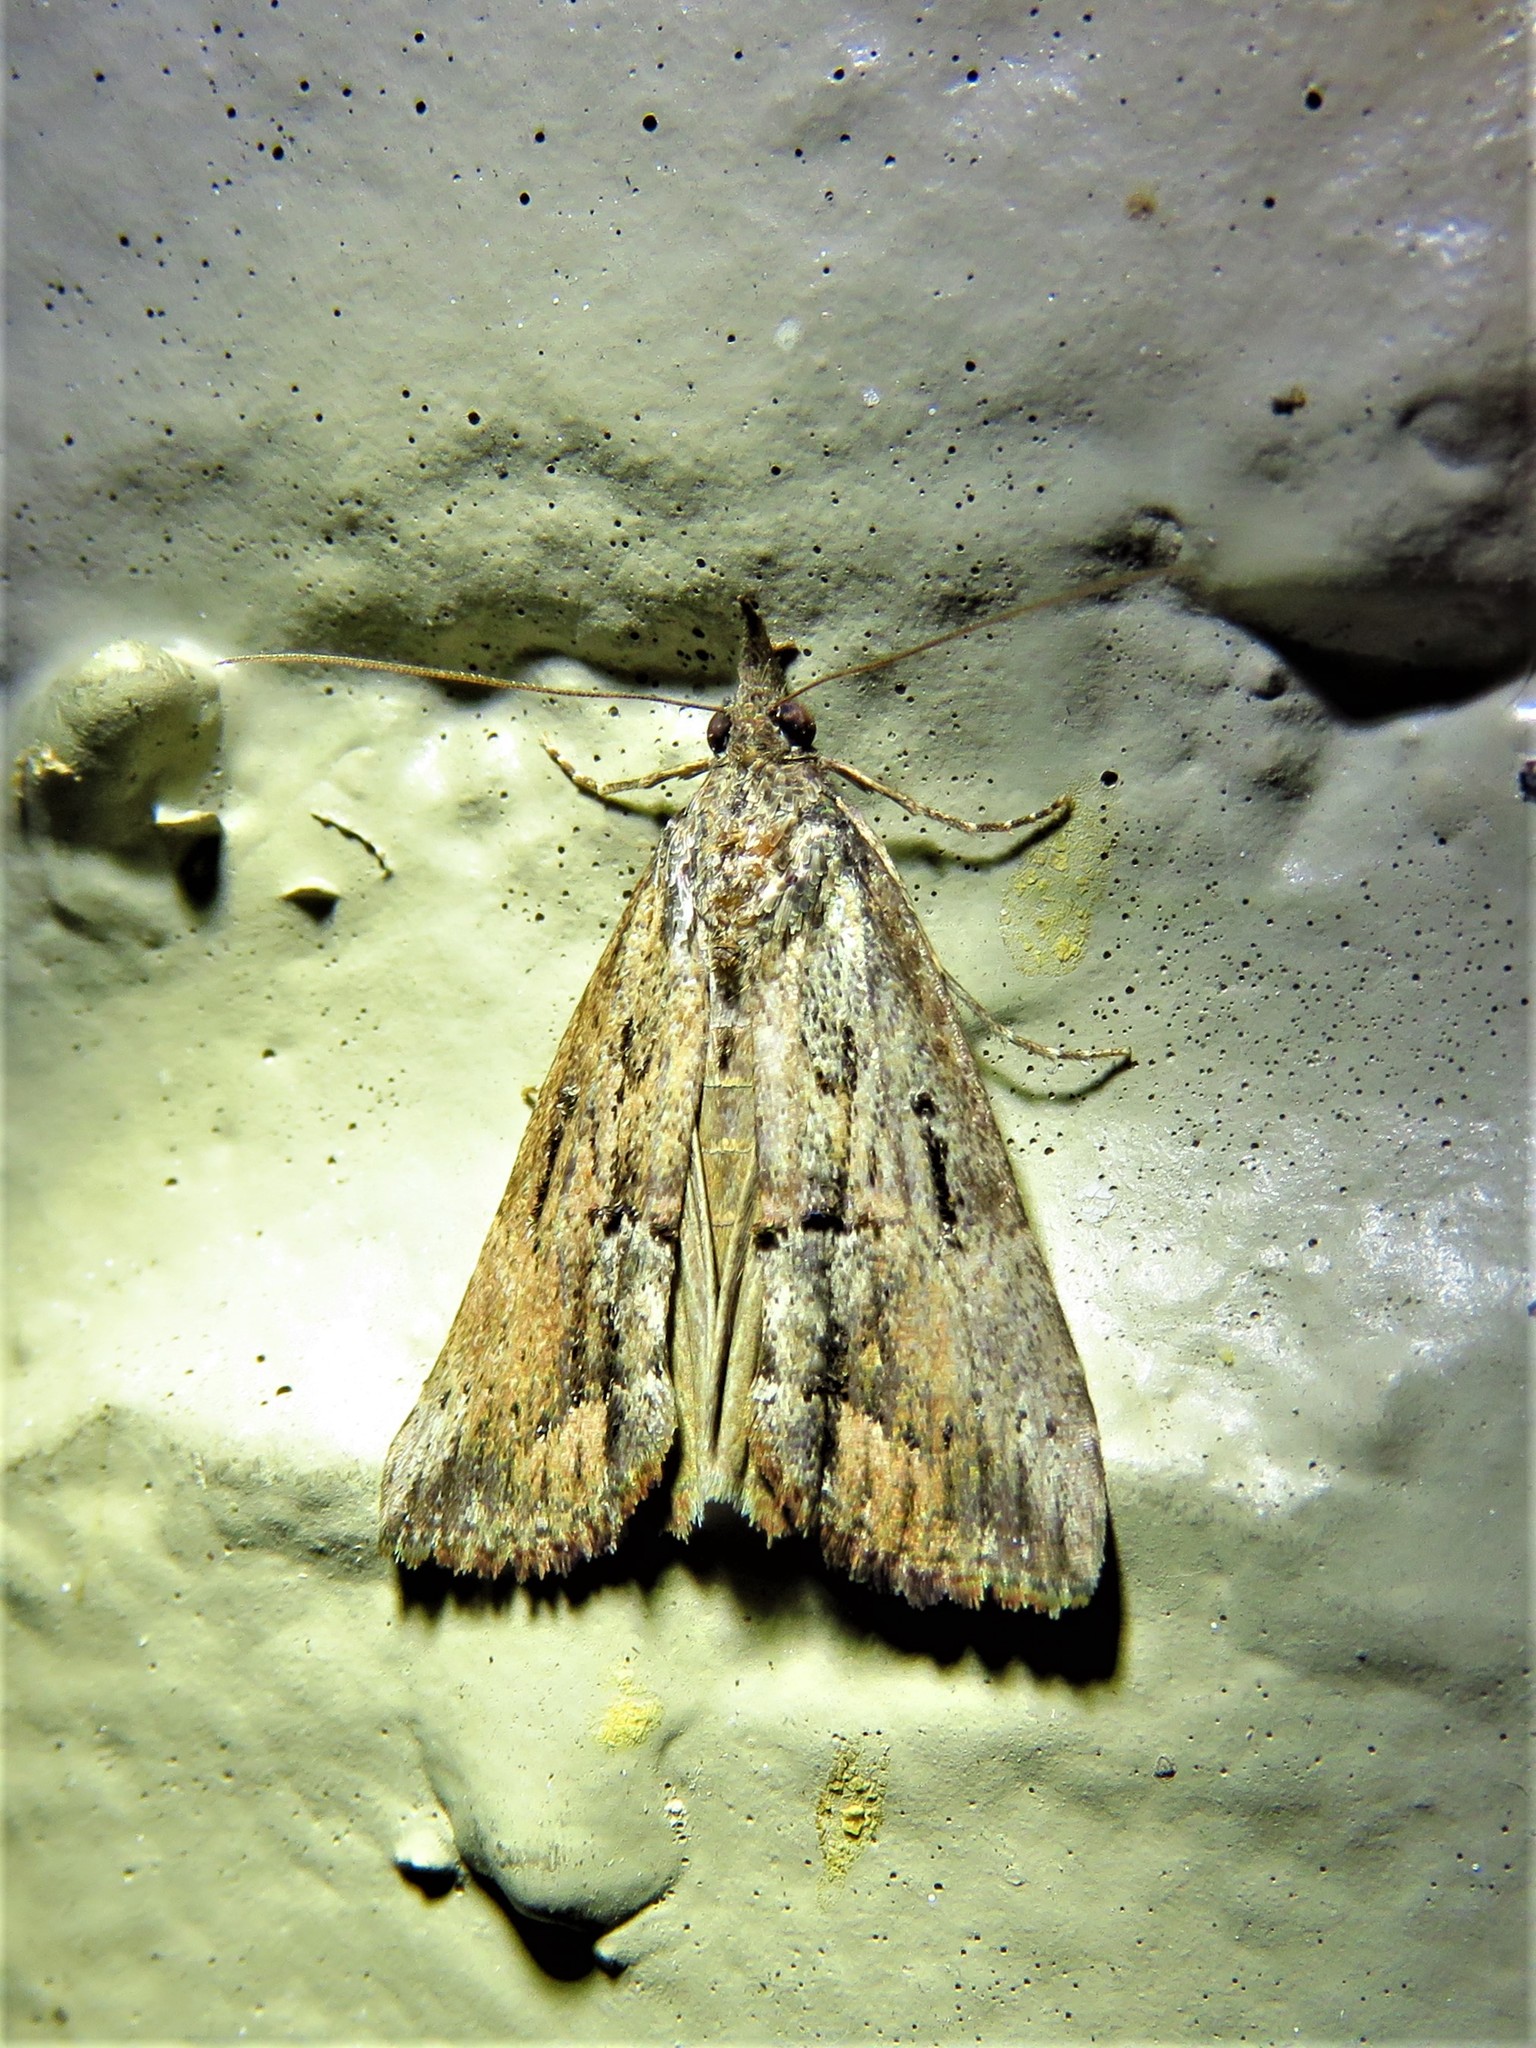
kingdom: Animalia
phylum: Arthropoda
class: Insecta
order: Lepidoptera
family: Erebidae
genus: Hypena
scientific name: Hypena scabra
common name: Green cloverworm
